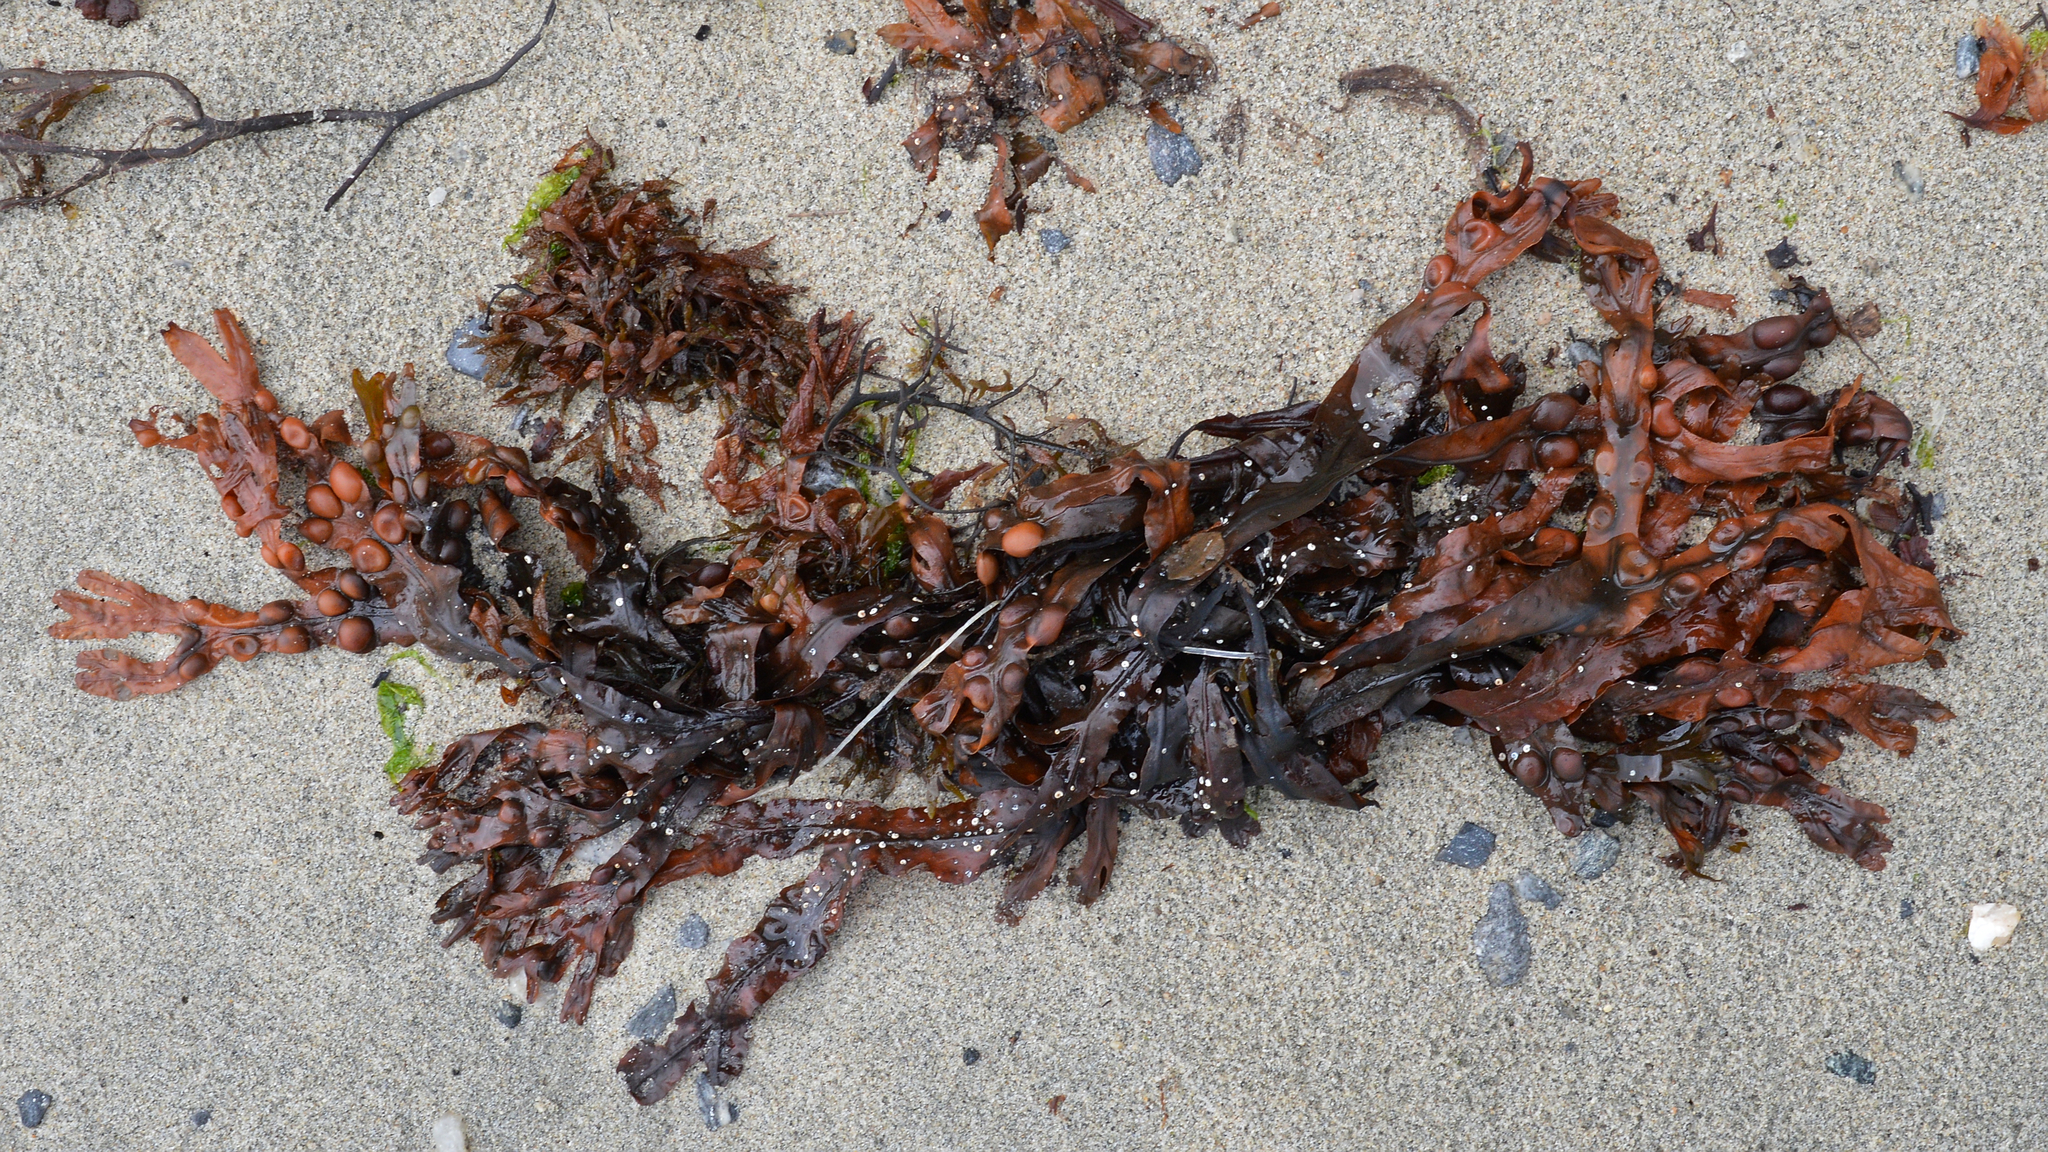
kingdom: Chromista
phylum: Ochrophyta
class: Phaeophyceae
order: Fucales
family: Fucaceae
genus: Fucus
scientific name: Fucus vesiculosus
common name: Bladder wrack
